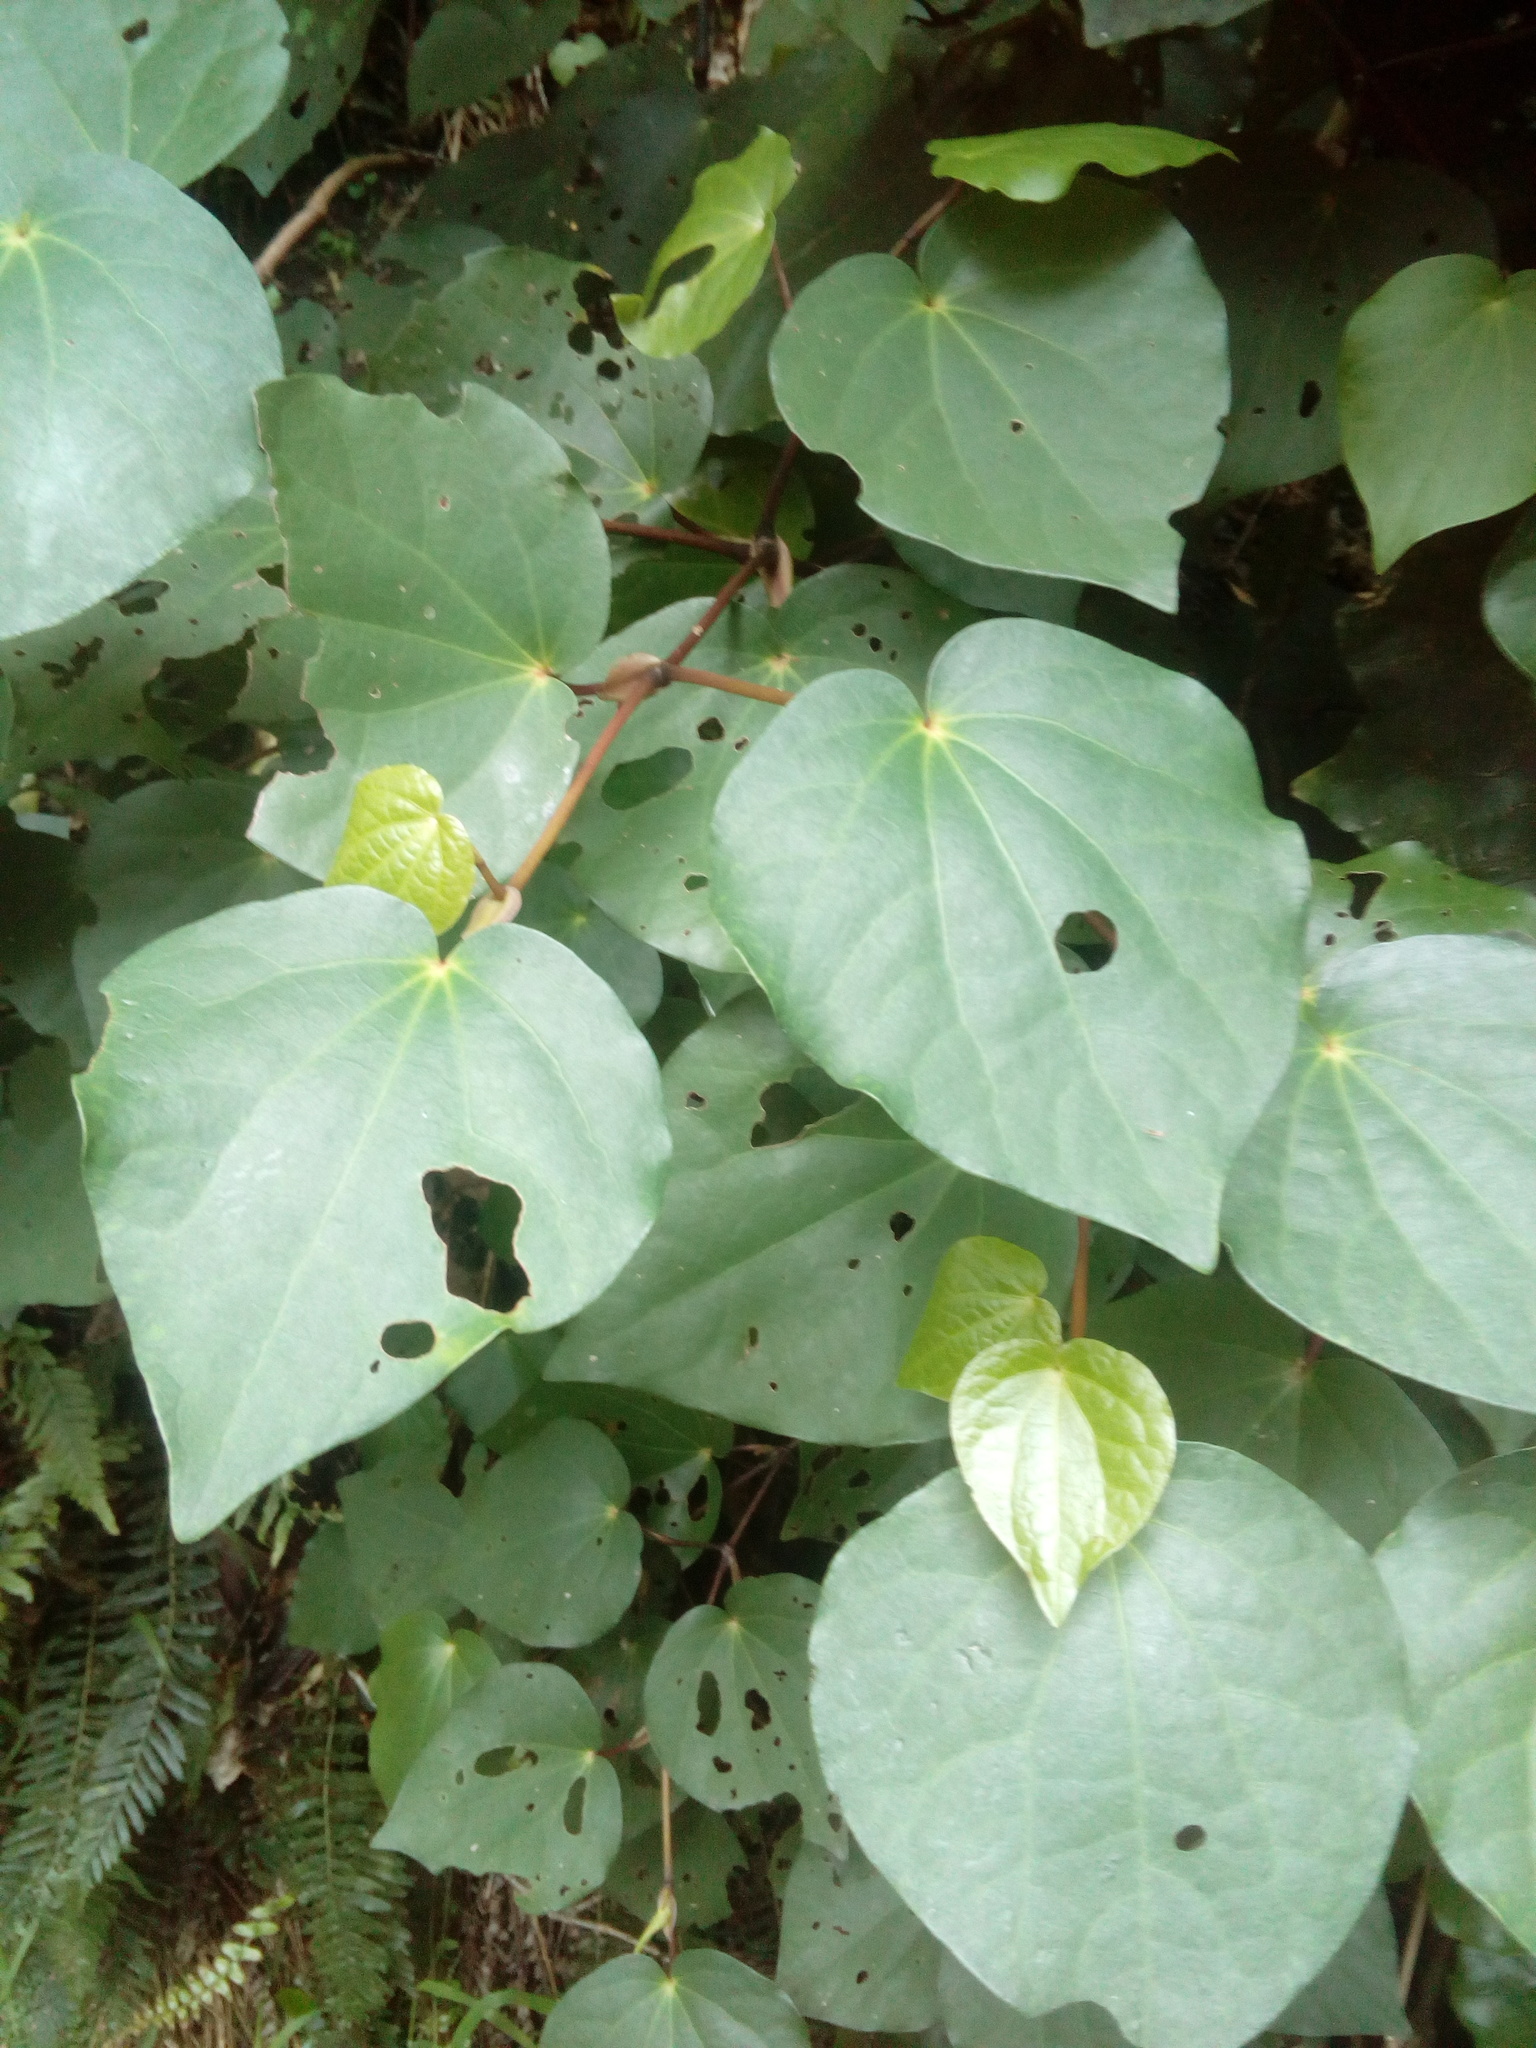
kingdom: Plantae
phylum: Tracheophyta
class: Magnoliopsida
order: Piperales
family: Piperaceae
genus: Macropiper
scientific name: Macropiper excelsum
